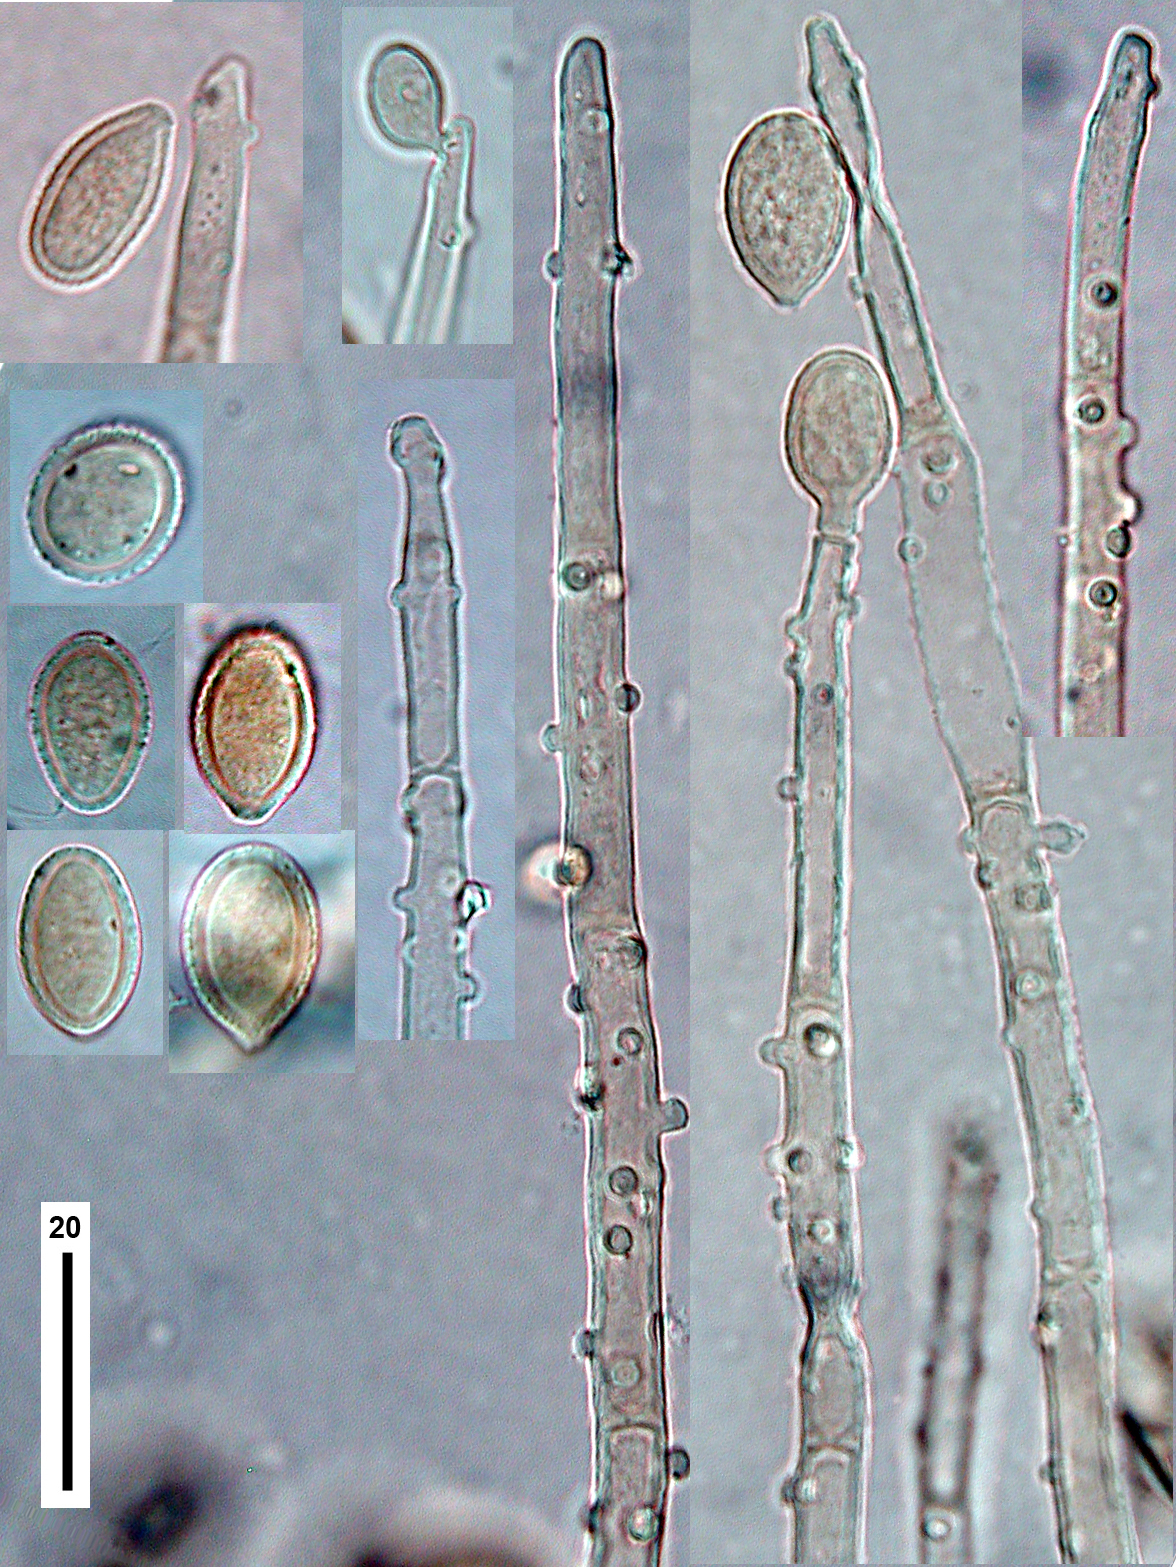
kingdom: Fungi
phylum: Basidiomycota
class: Agaricomycetes
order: Cantharellales
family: Botryobasidiaceae
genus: Botryobasidium
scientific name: Botryobasidium conspersum
